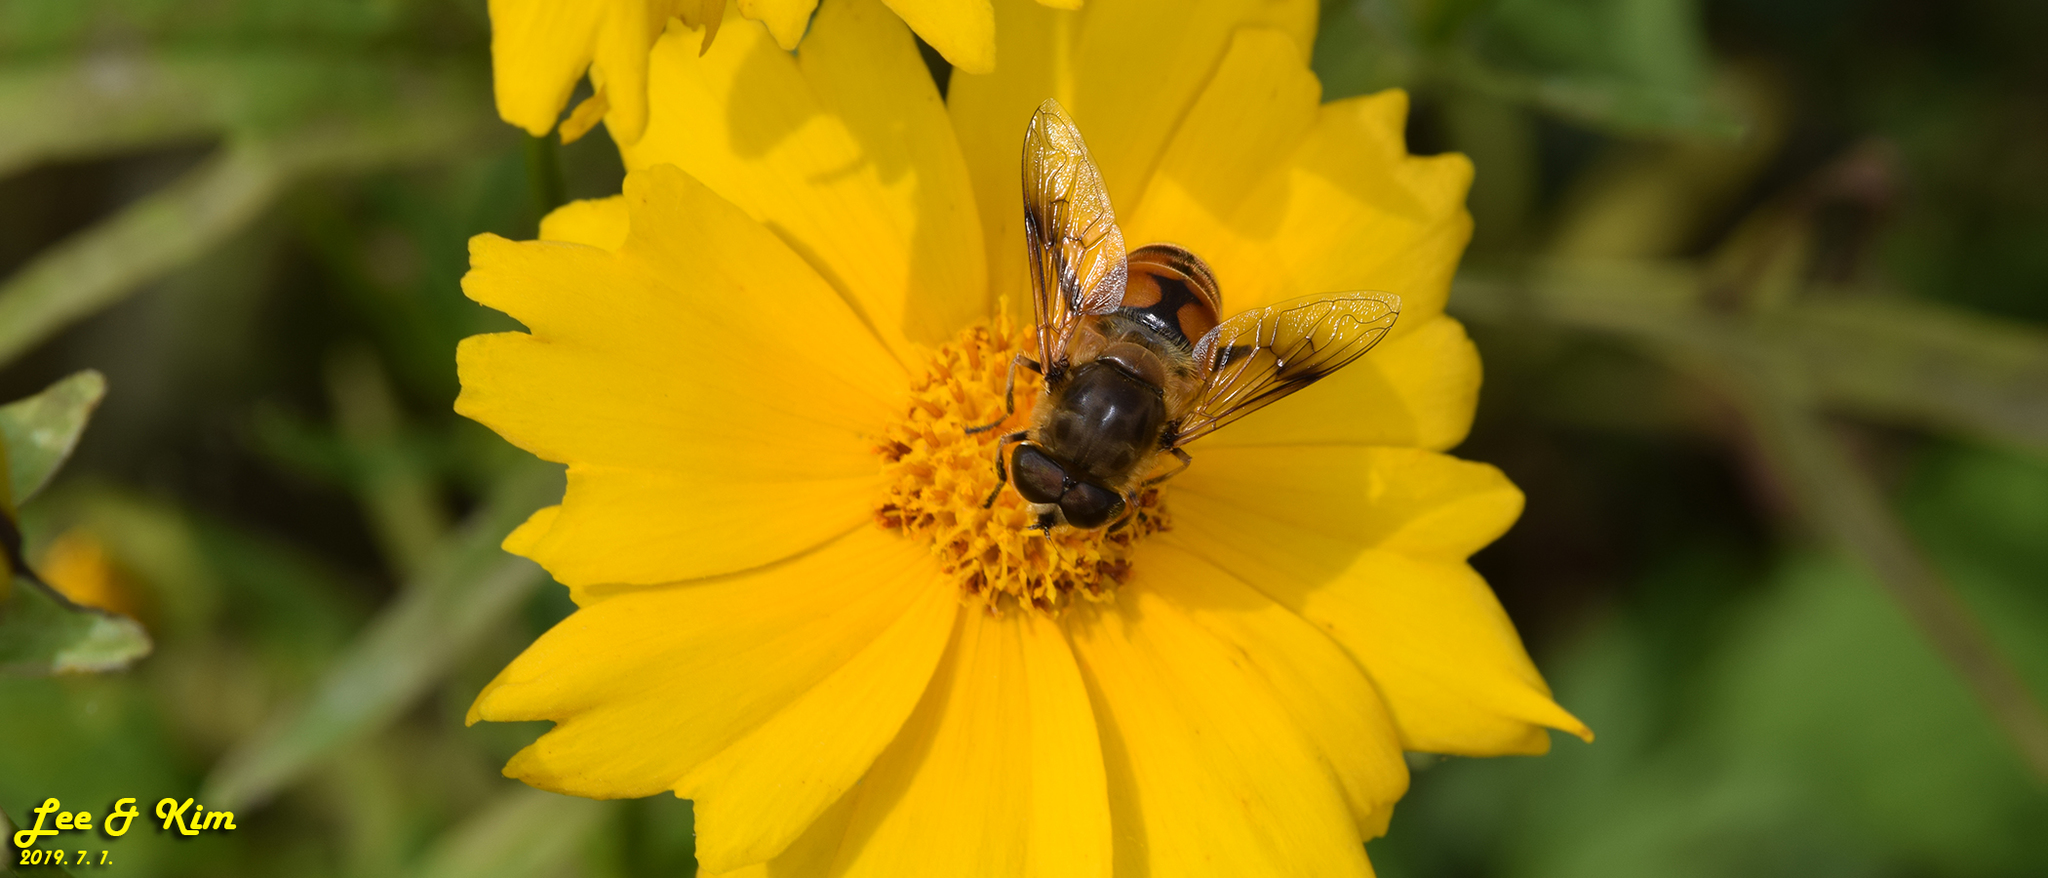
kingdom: Animalia
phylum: Arthropoda
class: Insecta
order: Diptera
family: Syrphidae
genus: Eristalis
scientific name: Eristalis tenax
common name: Drone fly
